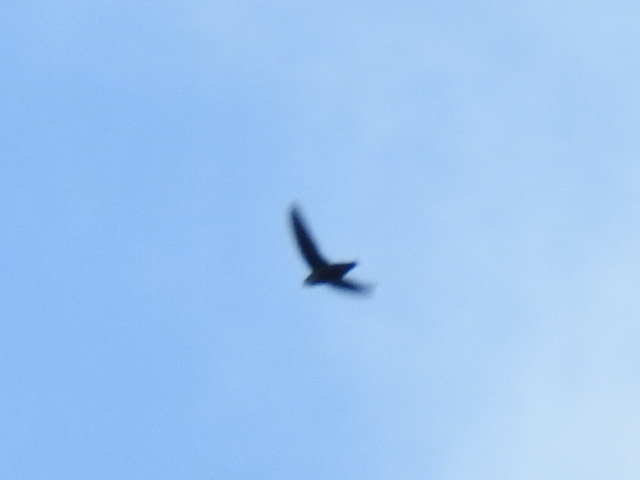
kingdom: Animalia
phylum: Chordata
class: Aves
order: Apodiformes
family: Apodidae
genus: Chaetura
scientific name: Chaetura pelagica
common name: Chimney swift
